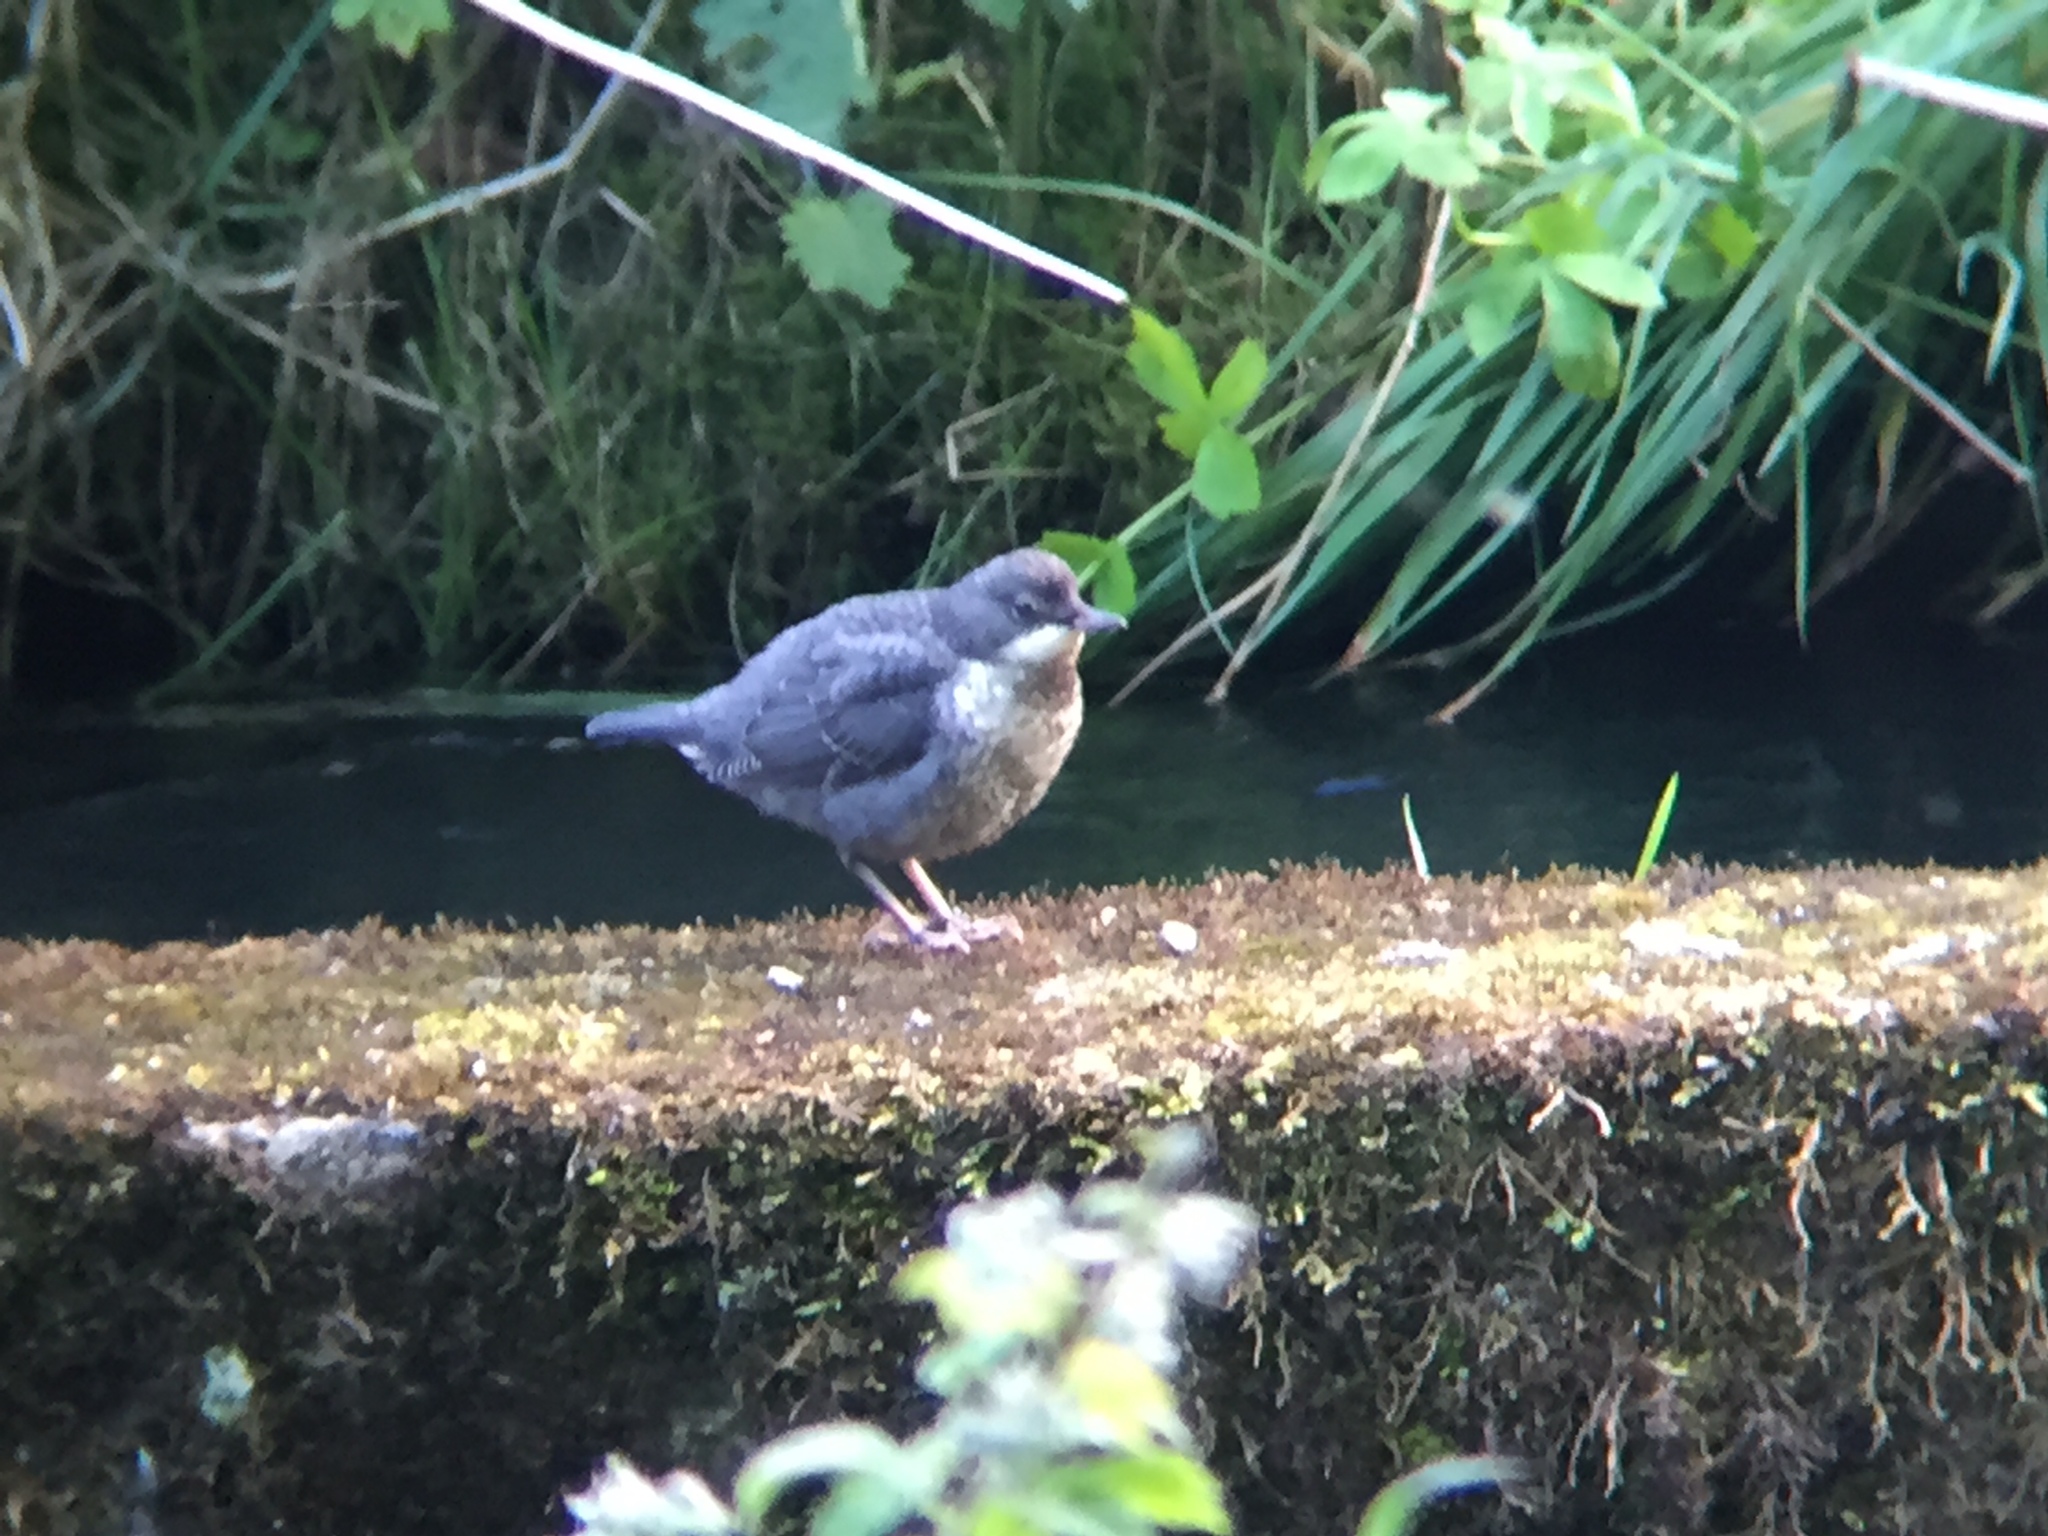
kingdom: Animalia
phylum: Chordata
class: Aves
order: Passeriformes
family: Cinclidae
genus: Cinclus
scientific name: Cinclus cinclus
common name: White-throated dipper
